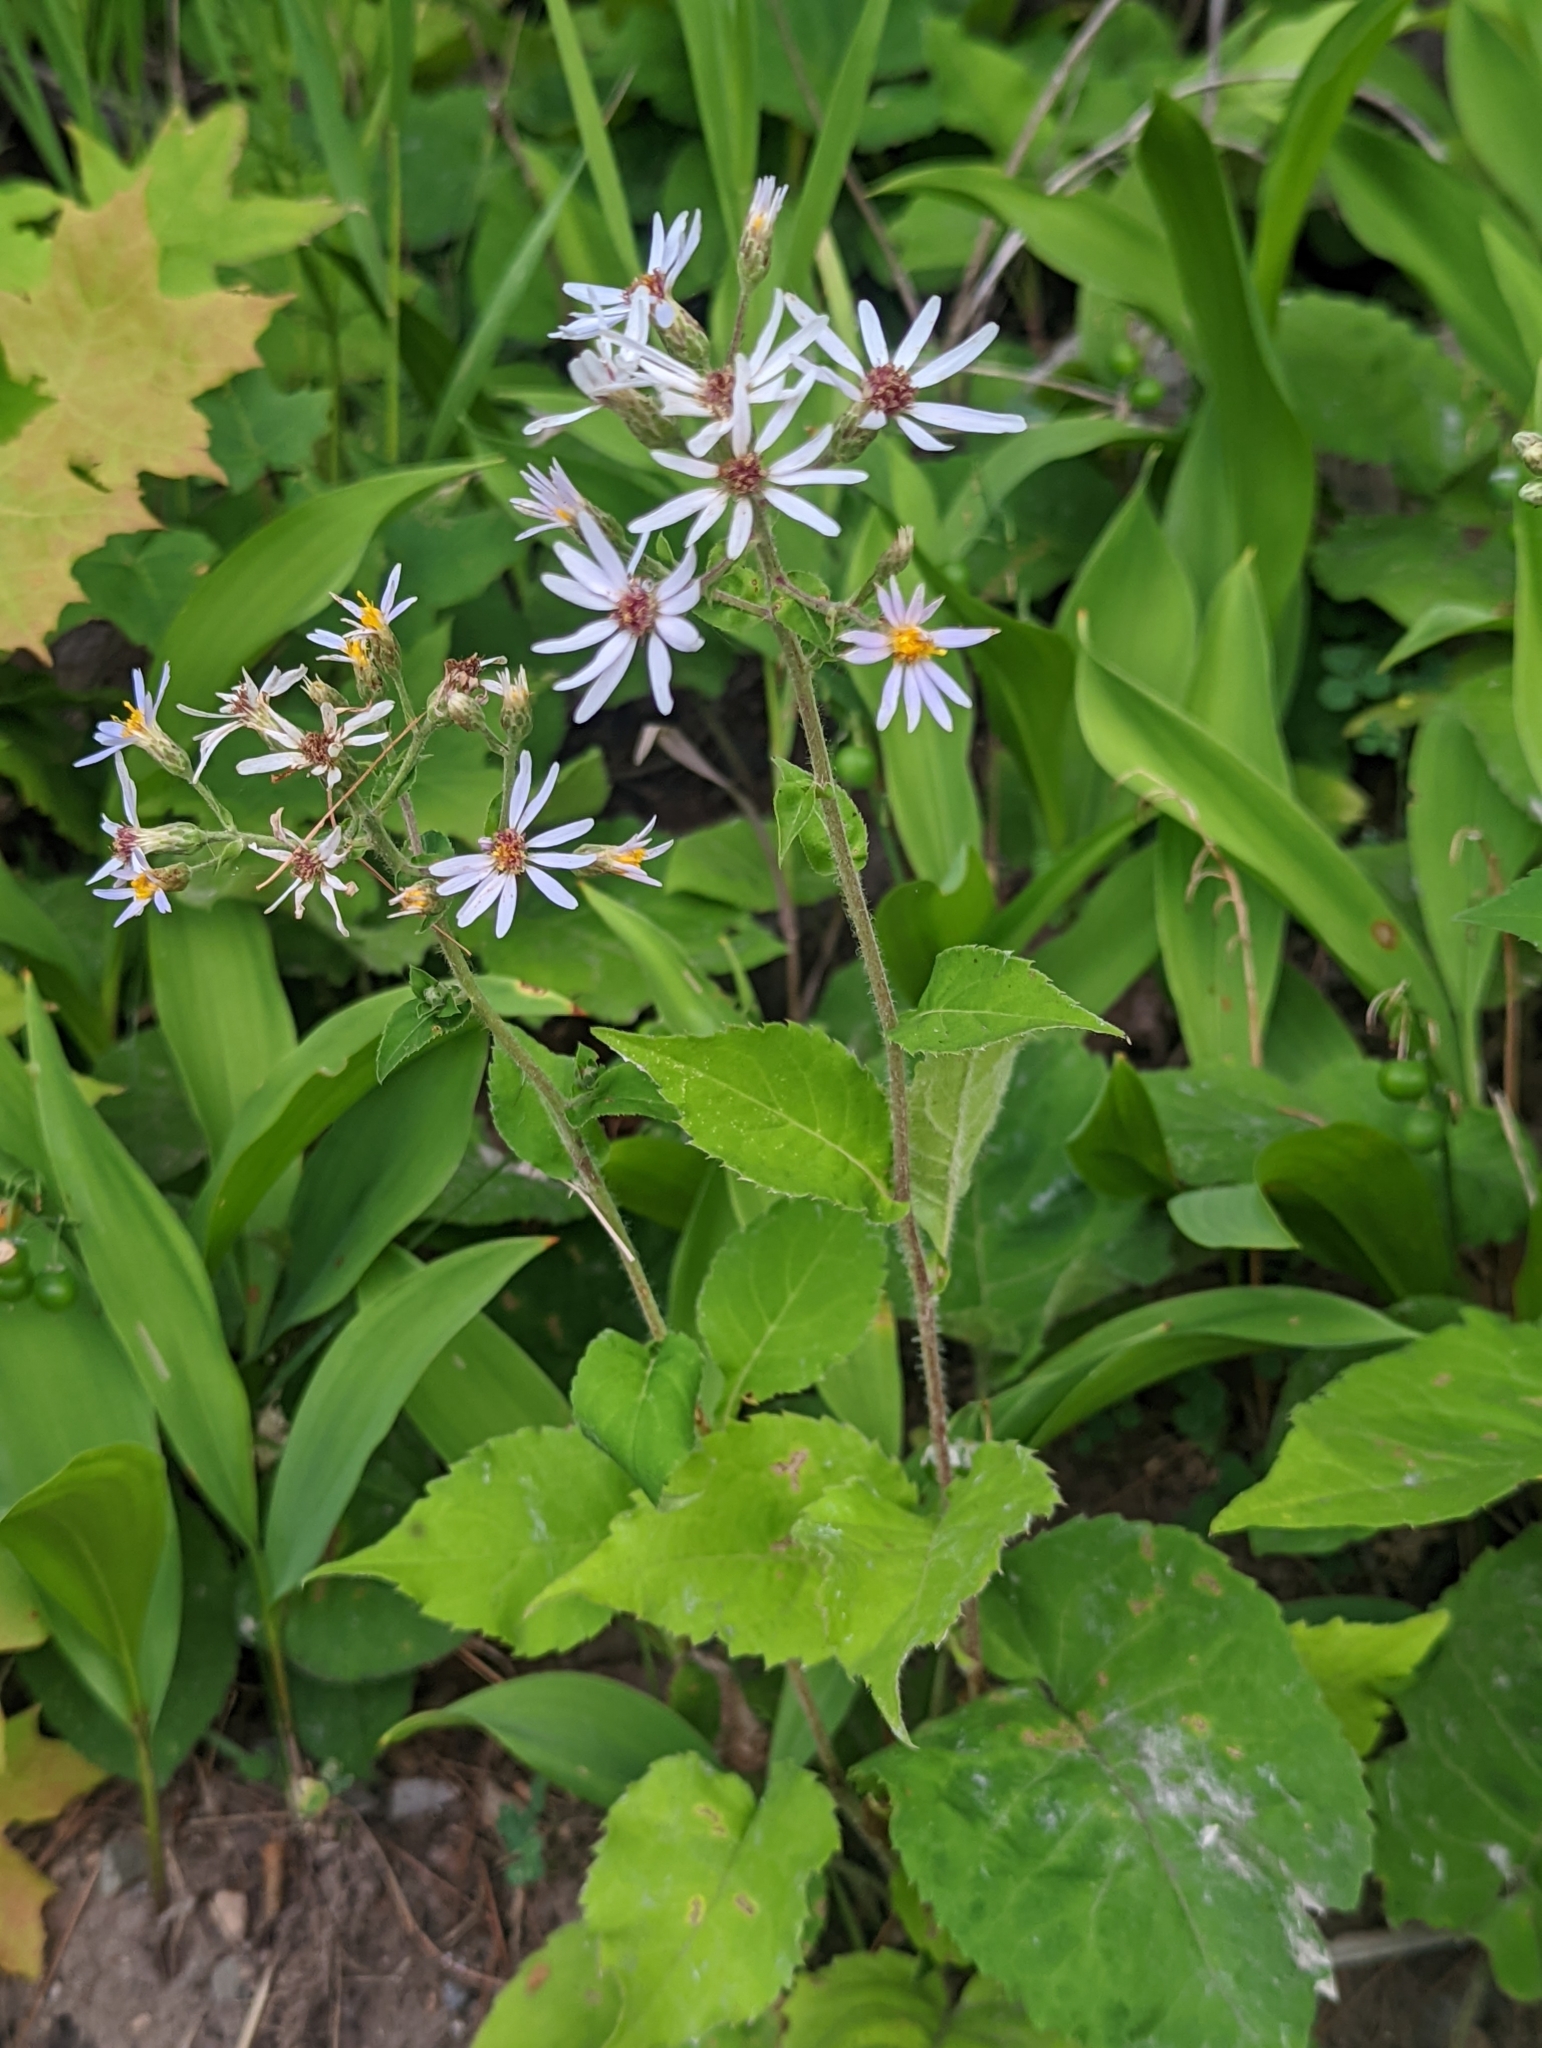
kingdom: Plantae
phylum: Tracheophyta
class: Magnoliopsida
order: Asterales
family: Asteraceae
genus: Eurybia
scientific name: Eurybia macrophylla
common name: Big-leaved aster
